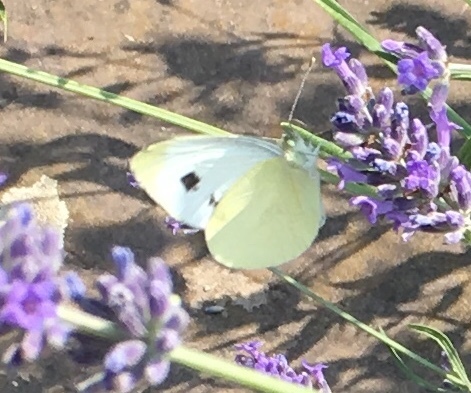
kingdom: Animalia
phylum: Arthropoda
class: Insecta
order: Lepidoptera
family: Pieridae
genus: Pieris
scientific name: Pieris mannii
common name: Southern small white
